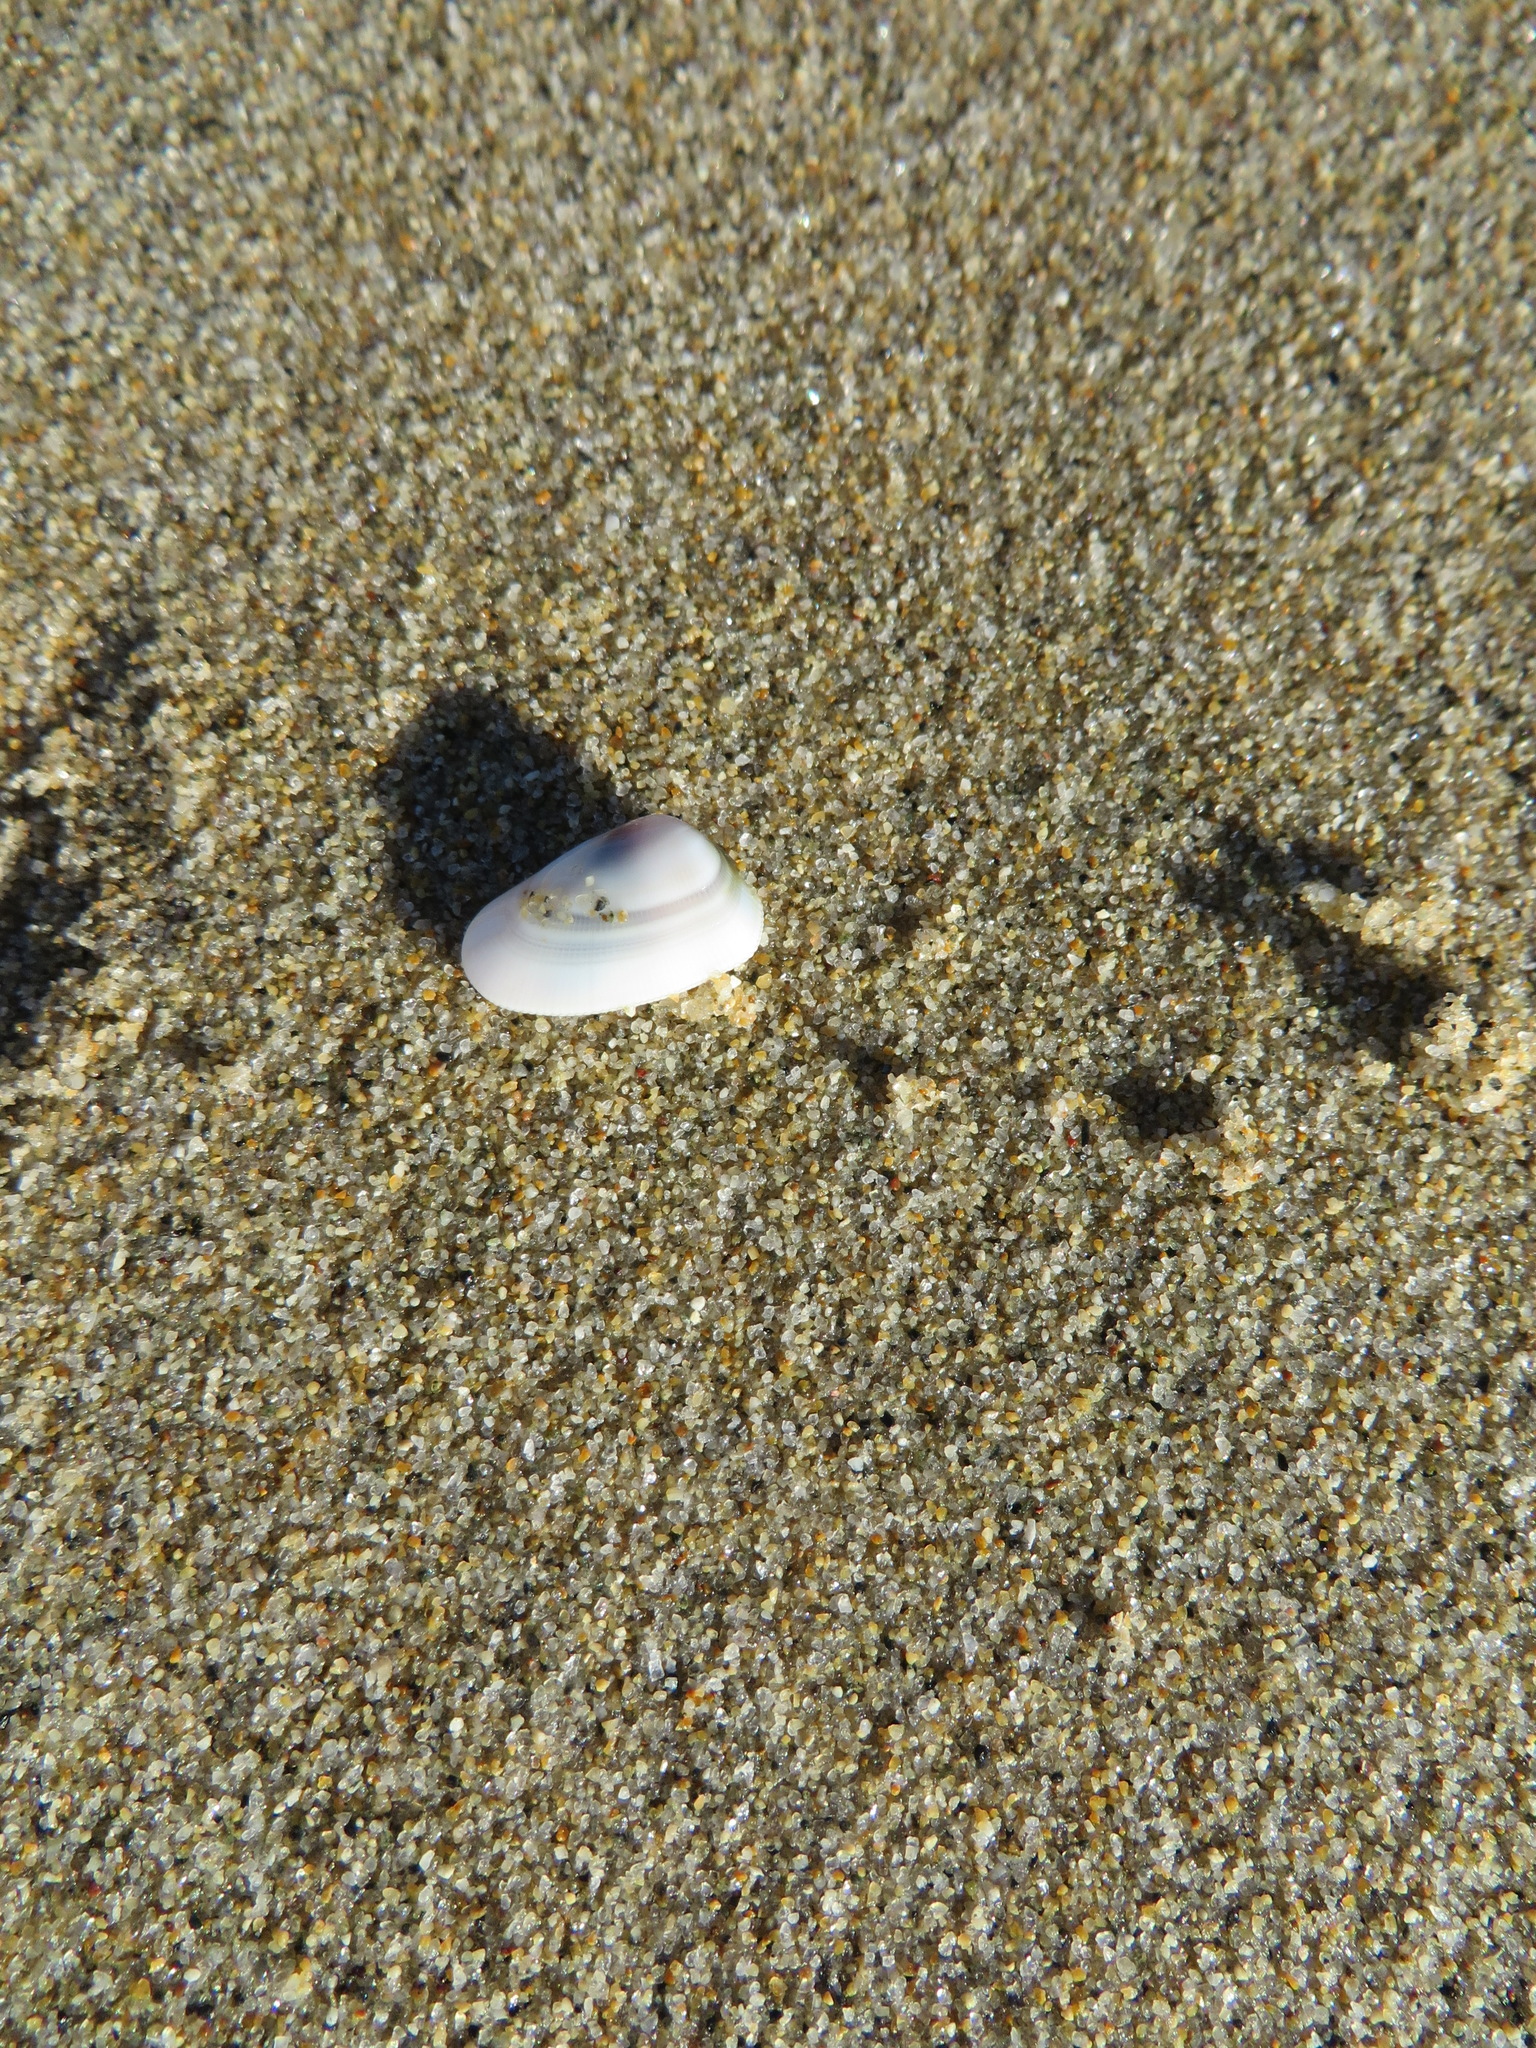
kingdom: Animalia
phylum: Mollusca
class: Bivalvia
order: Cardiida
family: Donacidae
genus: Donax
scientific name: Donax gouldii
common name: Gould beanclam
